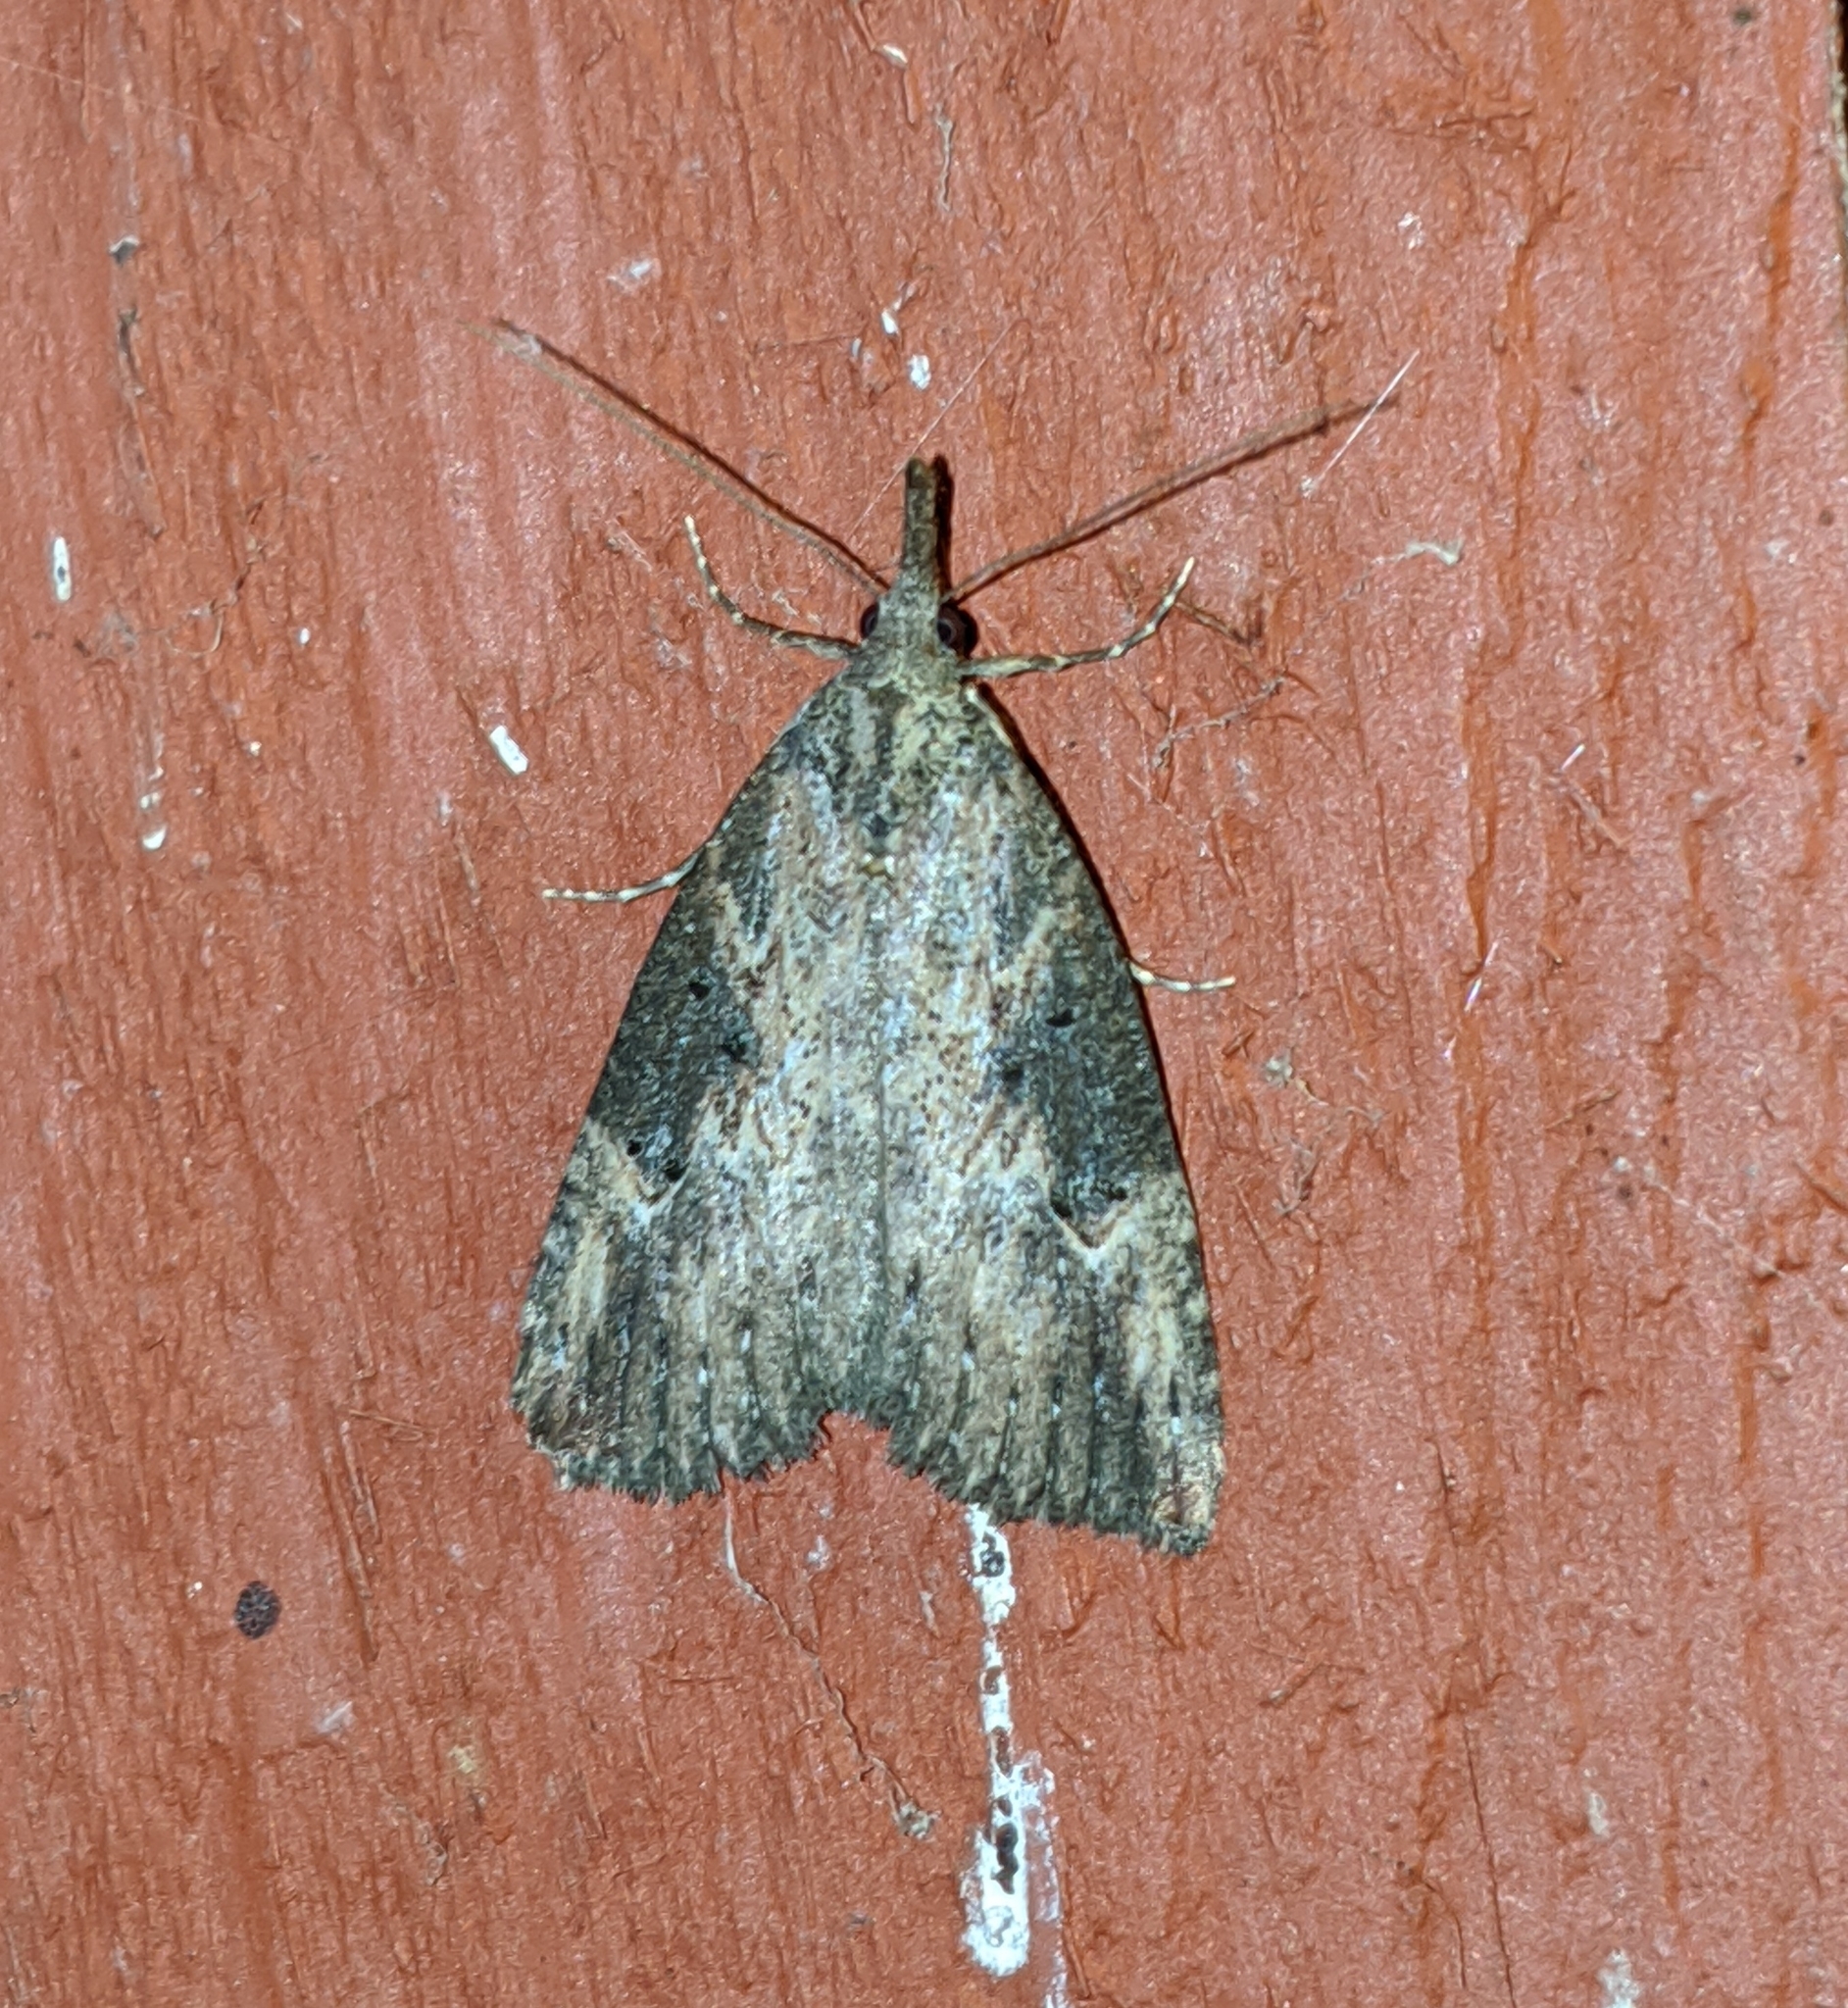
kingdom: Animalia
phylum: Arthropoda
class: Insecta
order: Lepidoptera
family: Erebidae
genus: Hypena
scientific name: Hypena humuli
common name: Hop vine snout
